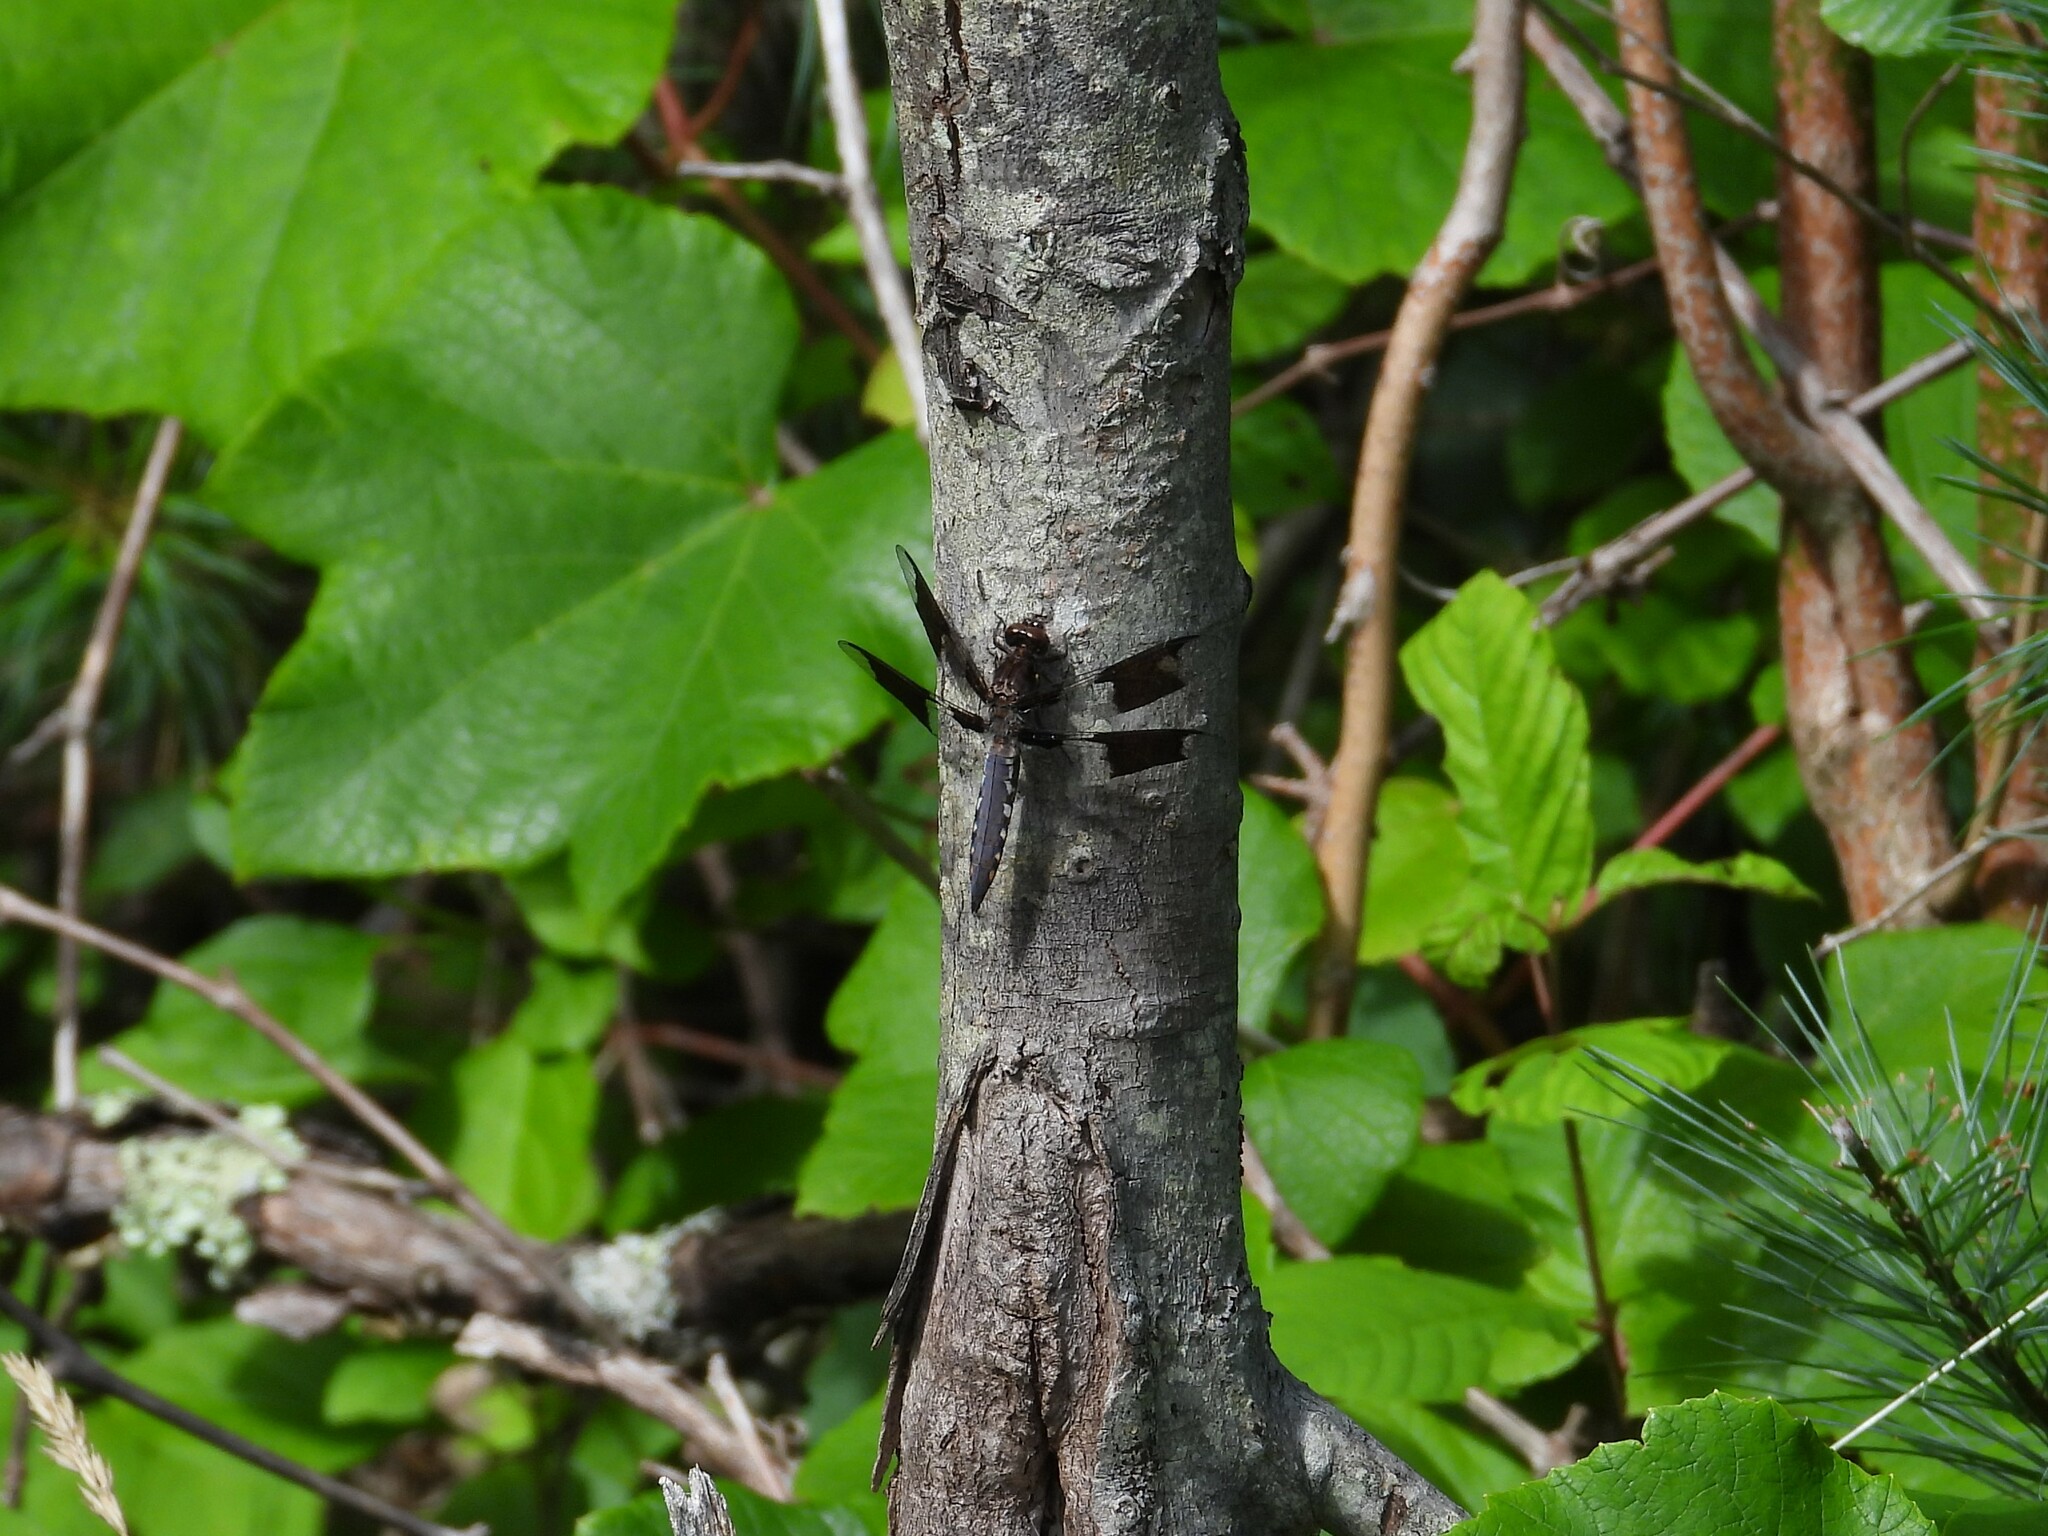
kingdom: Animalia
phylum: Arthropoda
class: Insecta
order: Odonata
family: Libellulidae
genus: Plathemis
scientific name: Plathemis lydia
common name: Common whitetail
